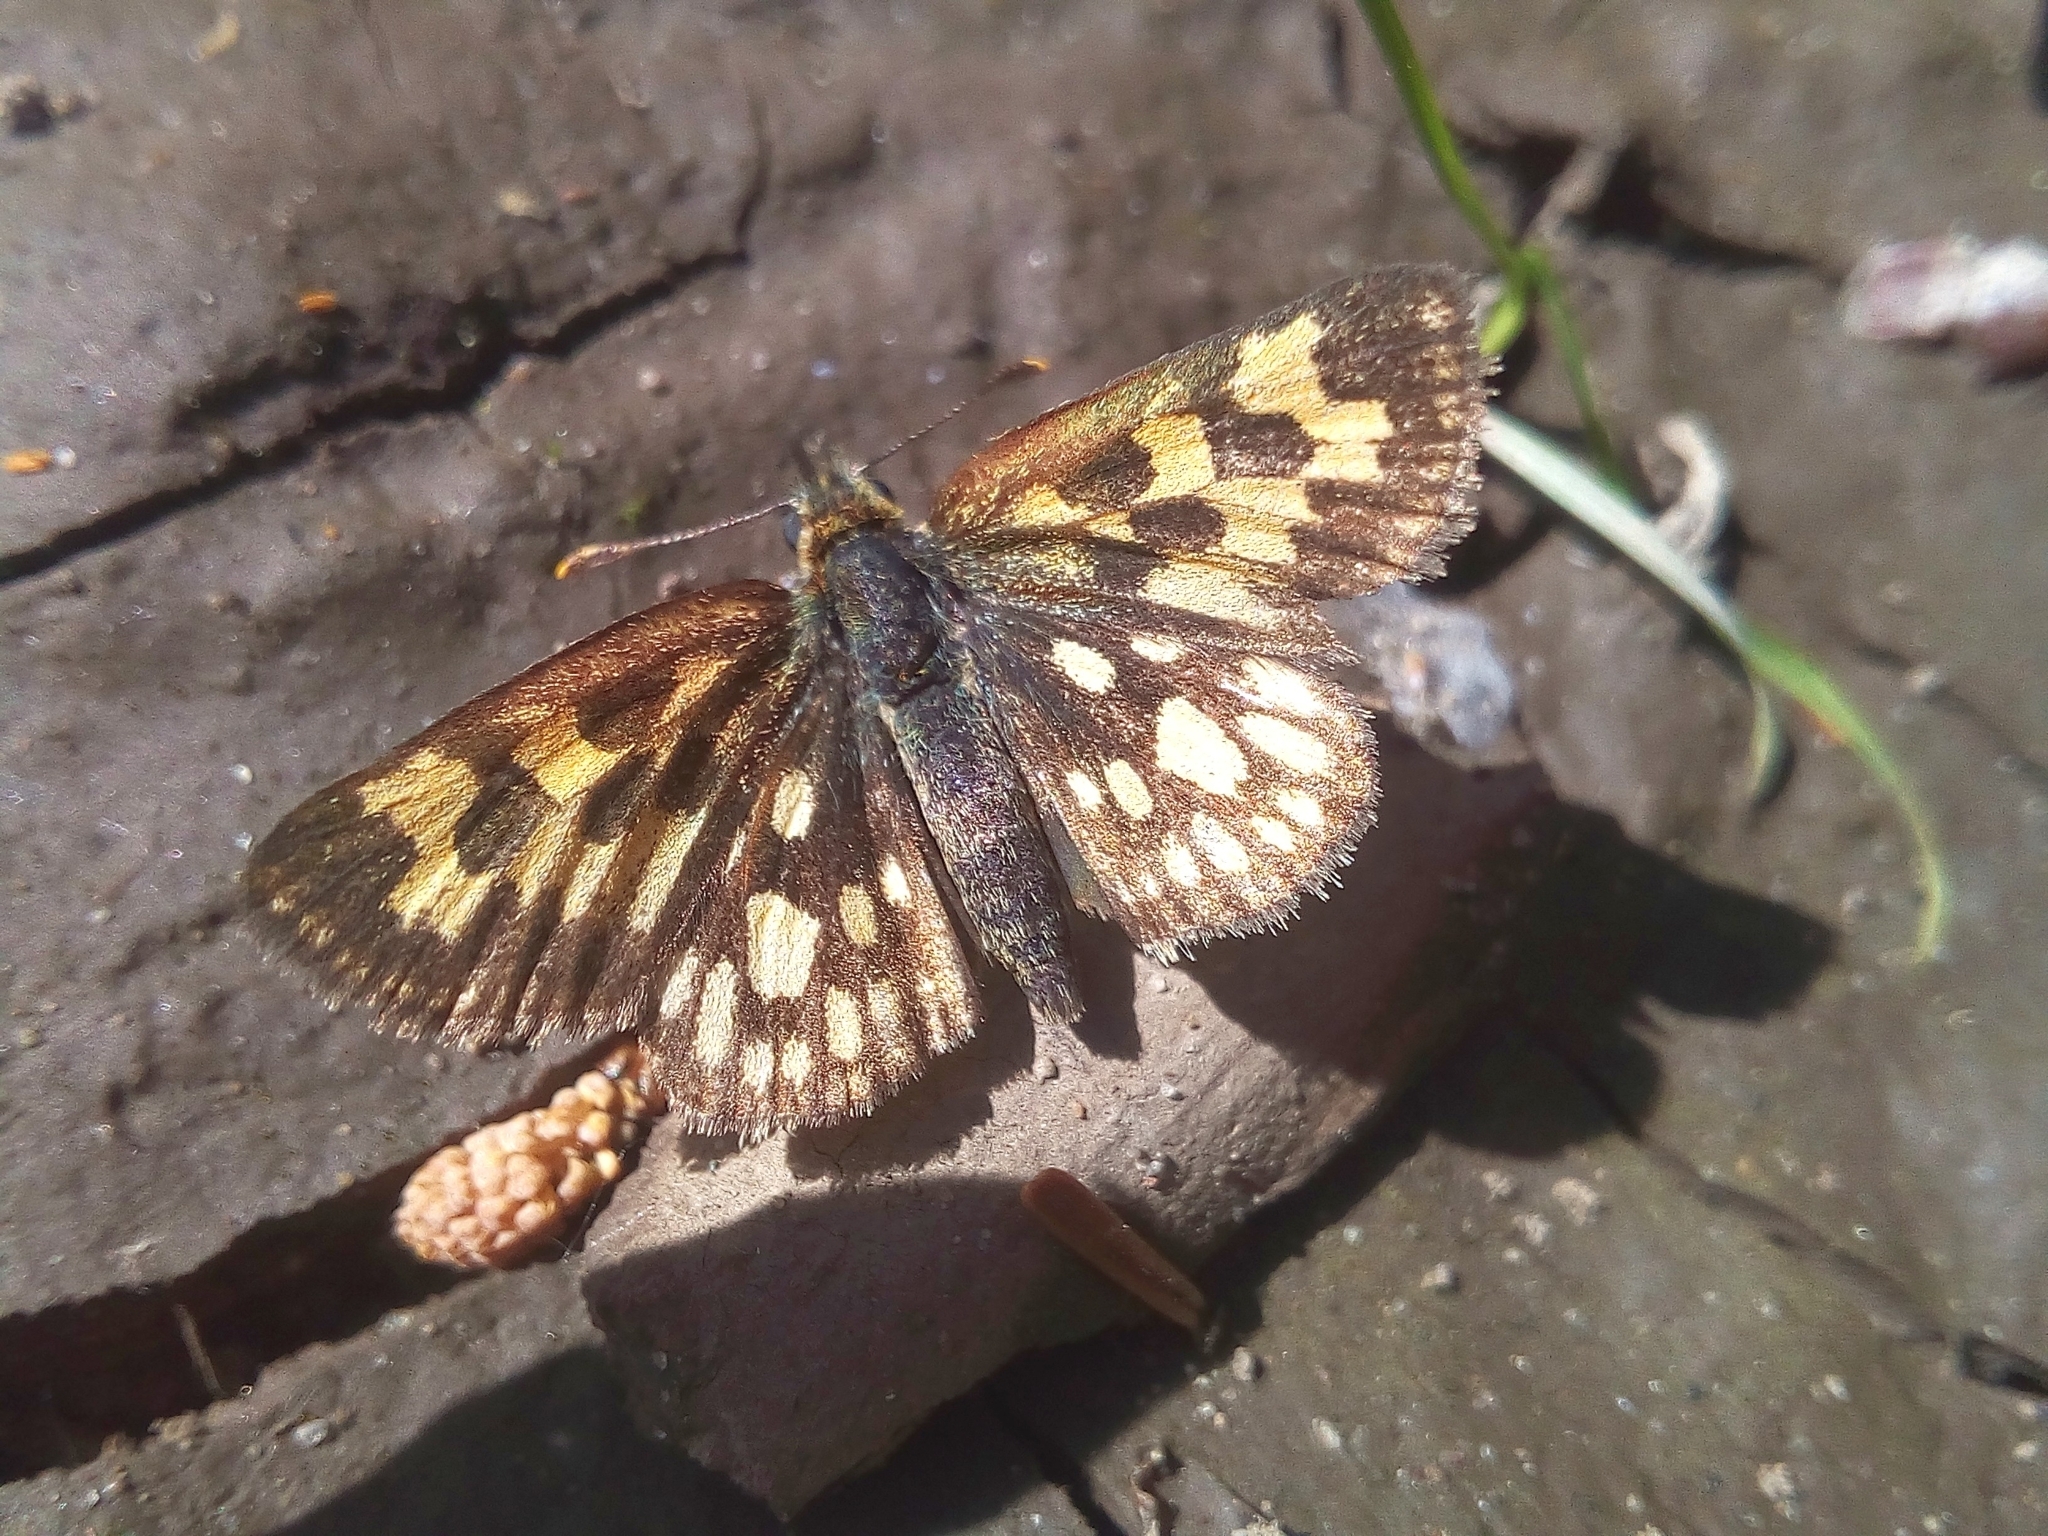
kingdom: Animalia
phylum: Arthropoda
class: Insecta
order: Lepidoptera
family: Hesperiidae
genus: Carterocephalus
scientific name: Carterocephalus silvicola
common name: Northern chequered skipper
